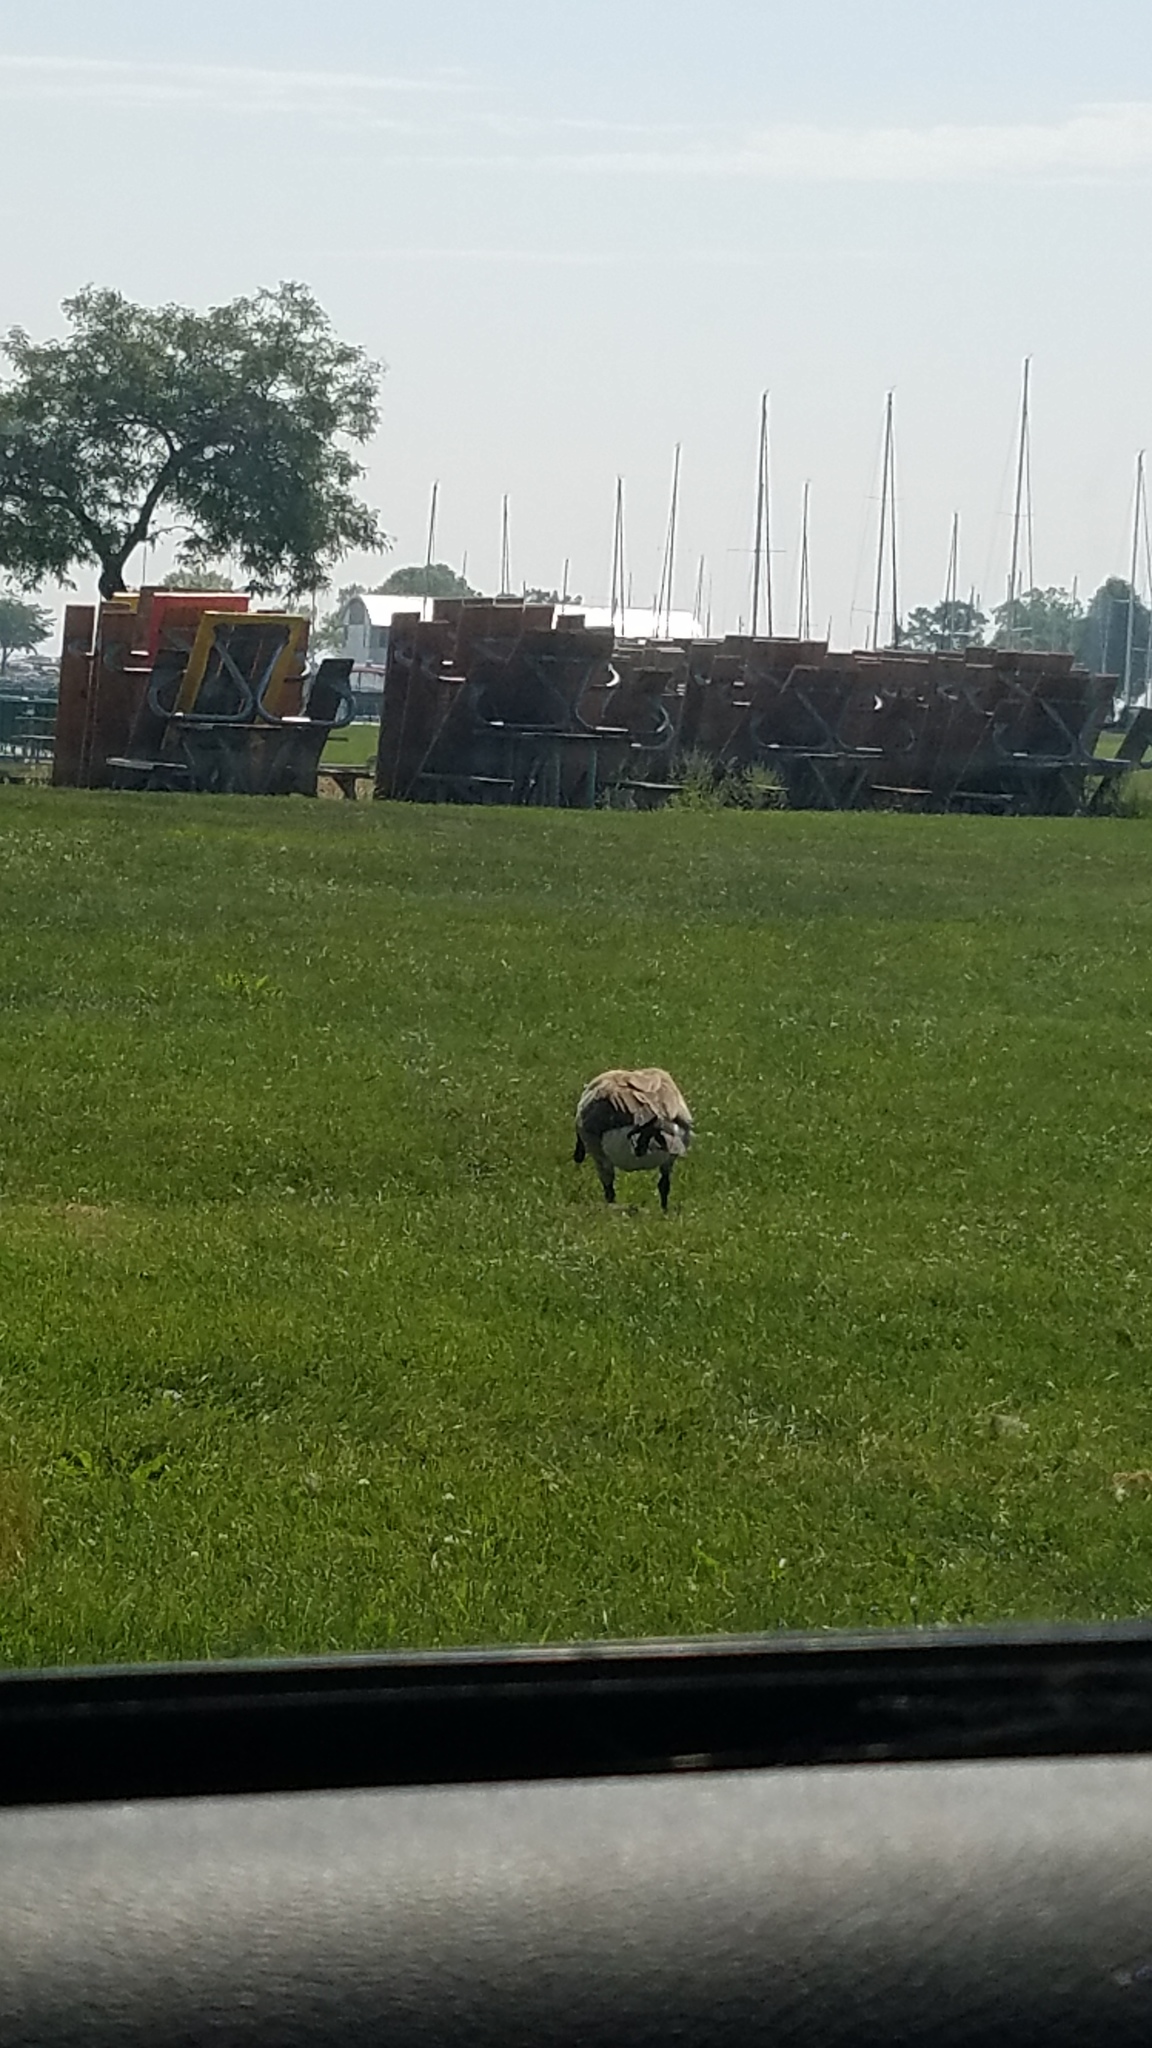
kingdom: Animalia
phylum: Chordata
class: Aves
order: Anseriformes
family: Anatidae
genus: Branta
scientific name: Branta canadensis
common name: Canada goose
